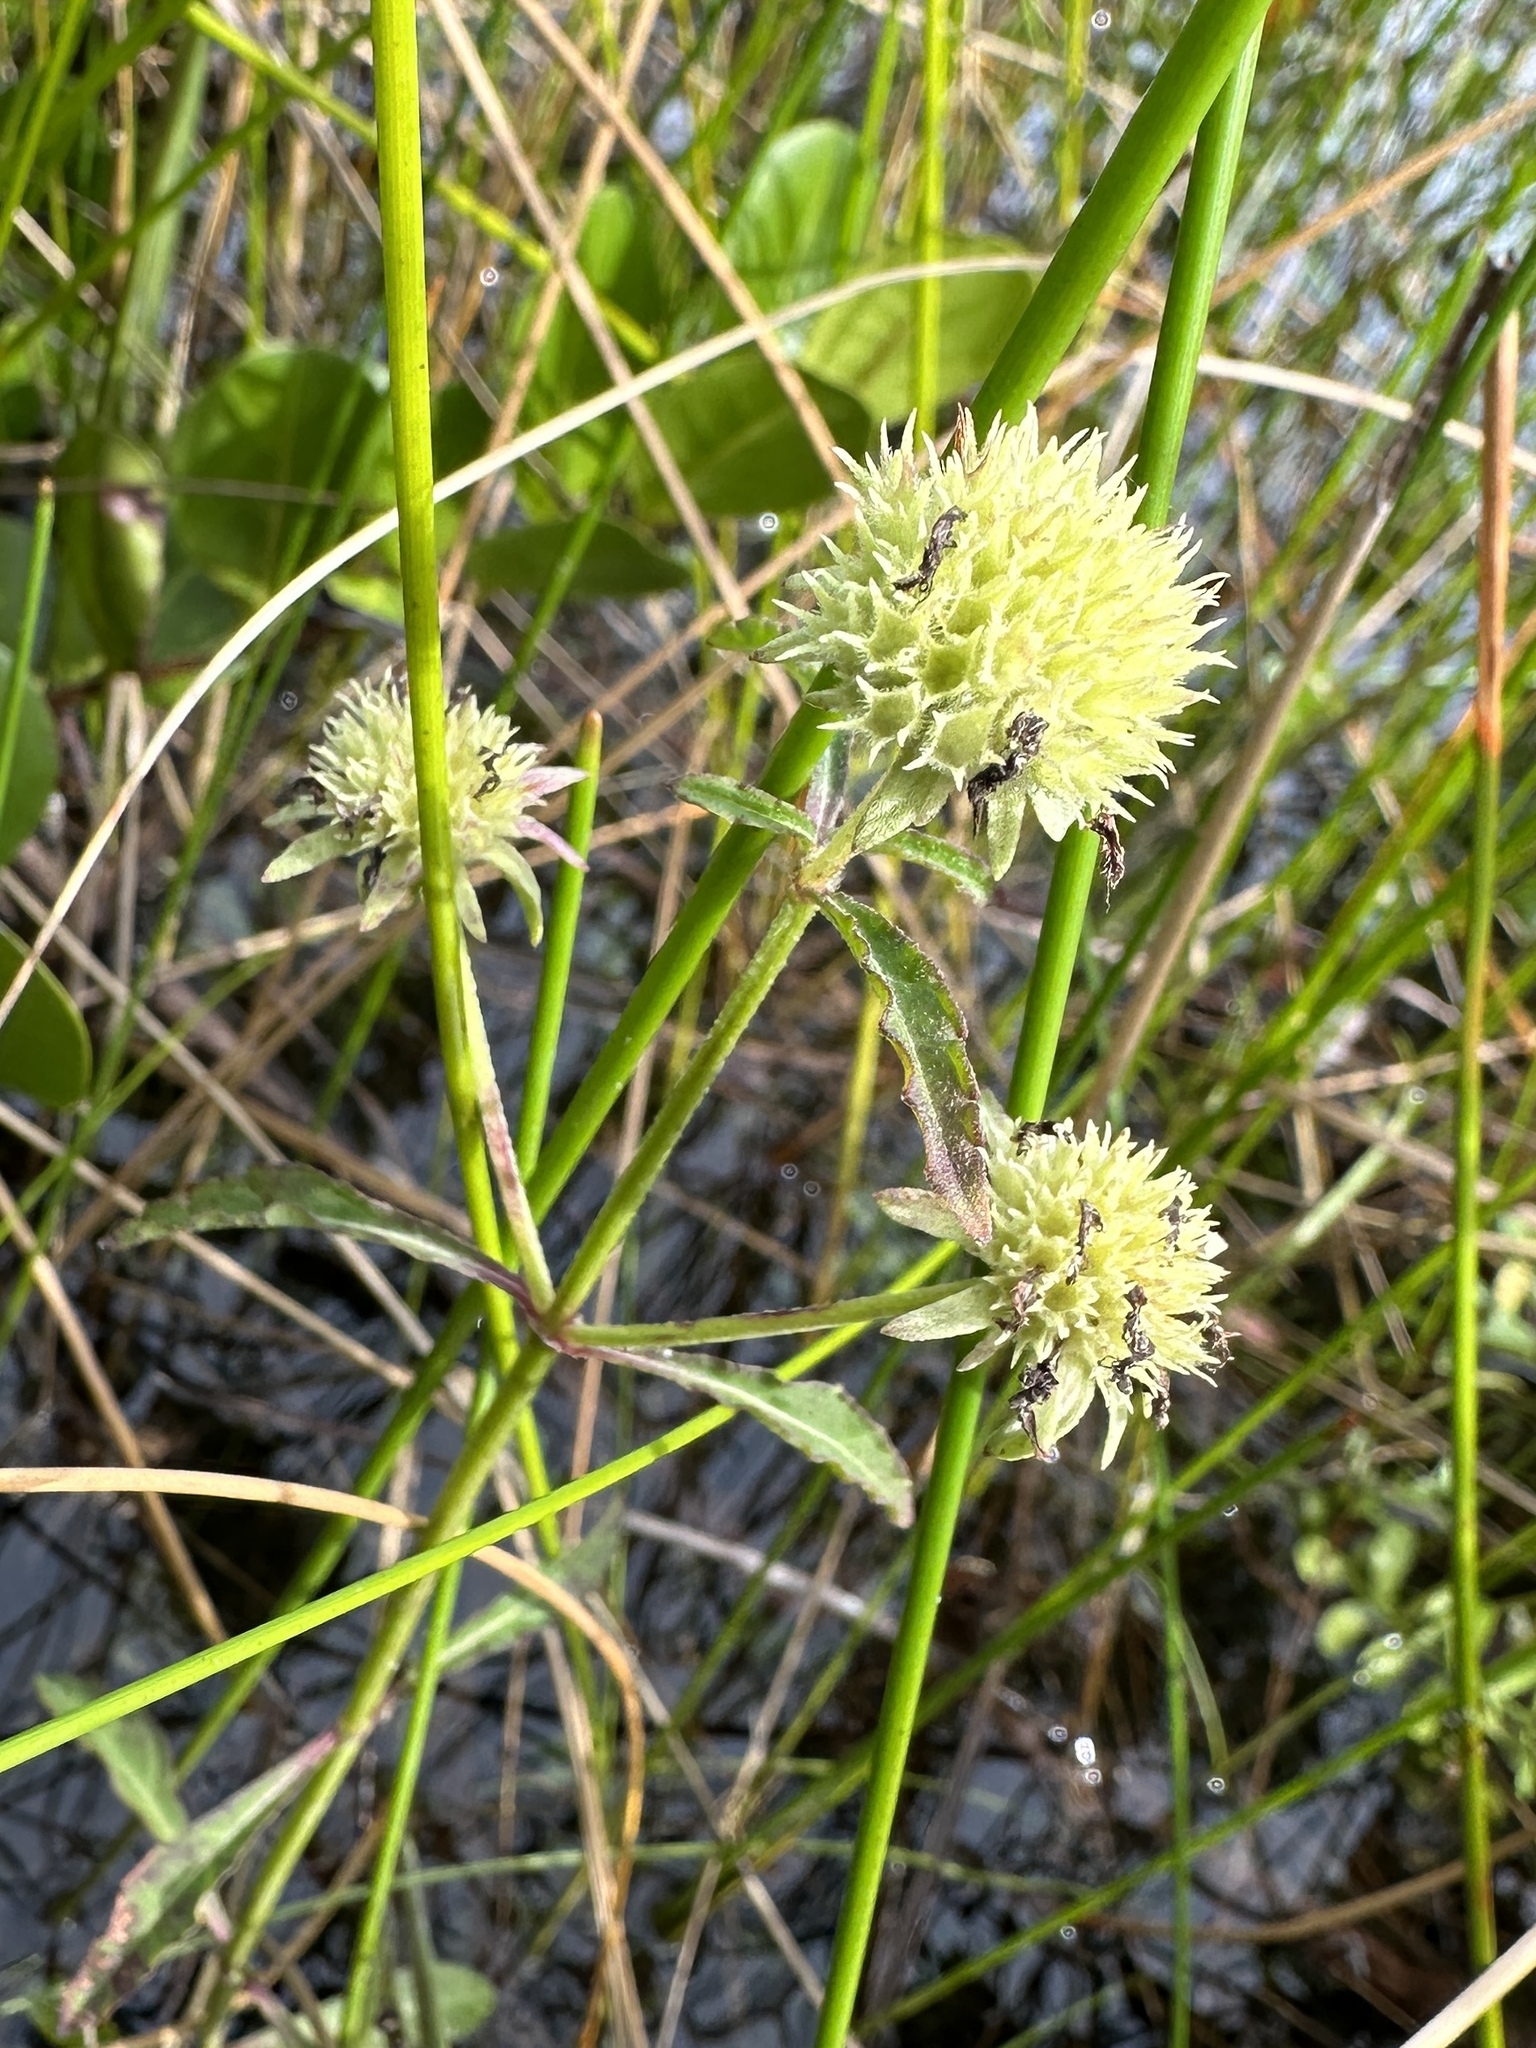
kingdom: Plantae
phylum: Tracheophyta
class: Magnoliopsida
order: Lamiales
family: Lamiaceae
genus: Hyptis
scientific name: Hyptis alata
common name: Cluster bush-mint
